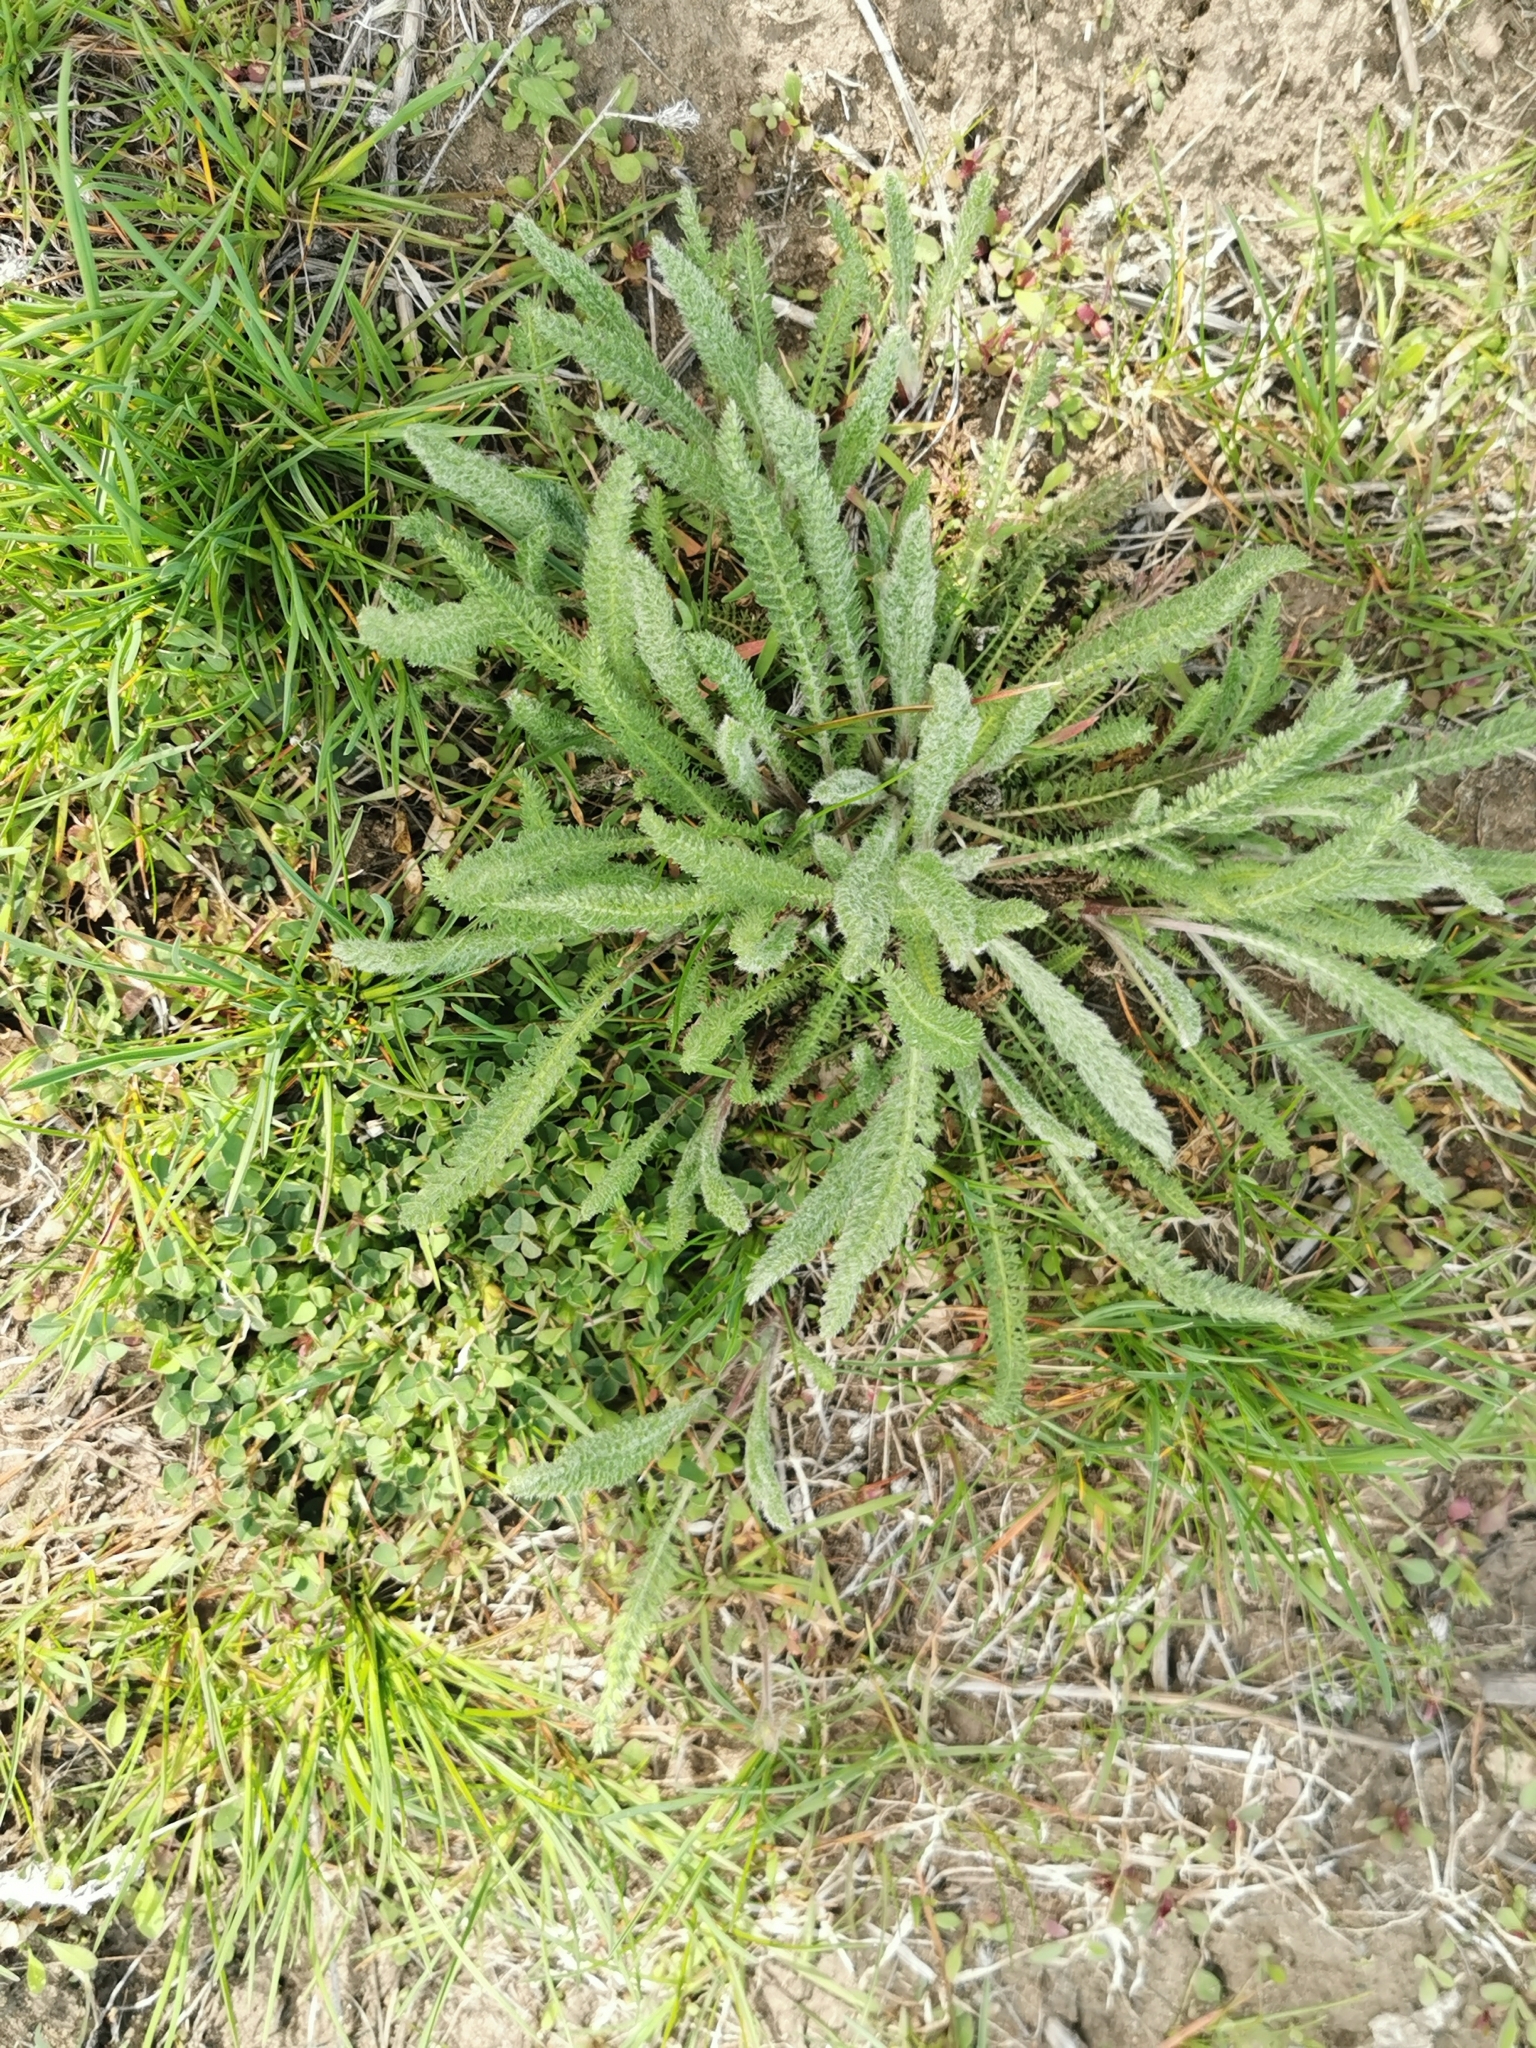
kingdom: Plantae
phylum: Tracheophyta
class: Magnoliopsida
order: Asterales
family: Asteraceae
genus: Achillea
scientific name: Achillea millefolium
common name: Yarrow
